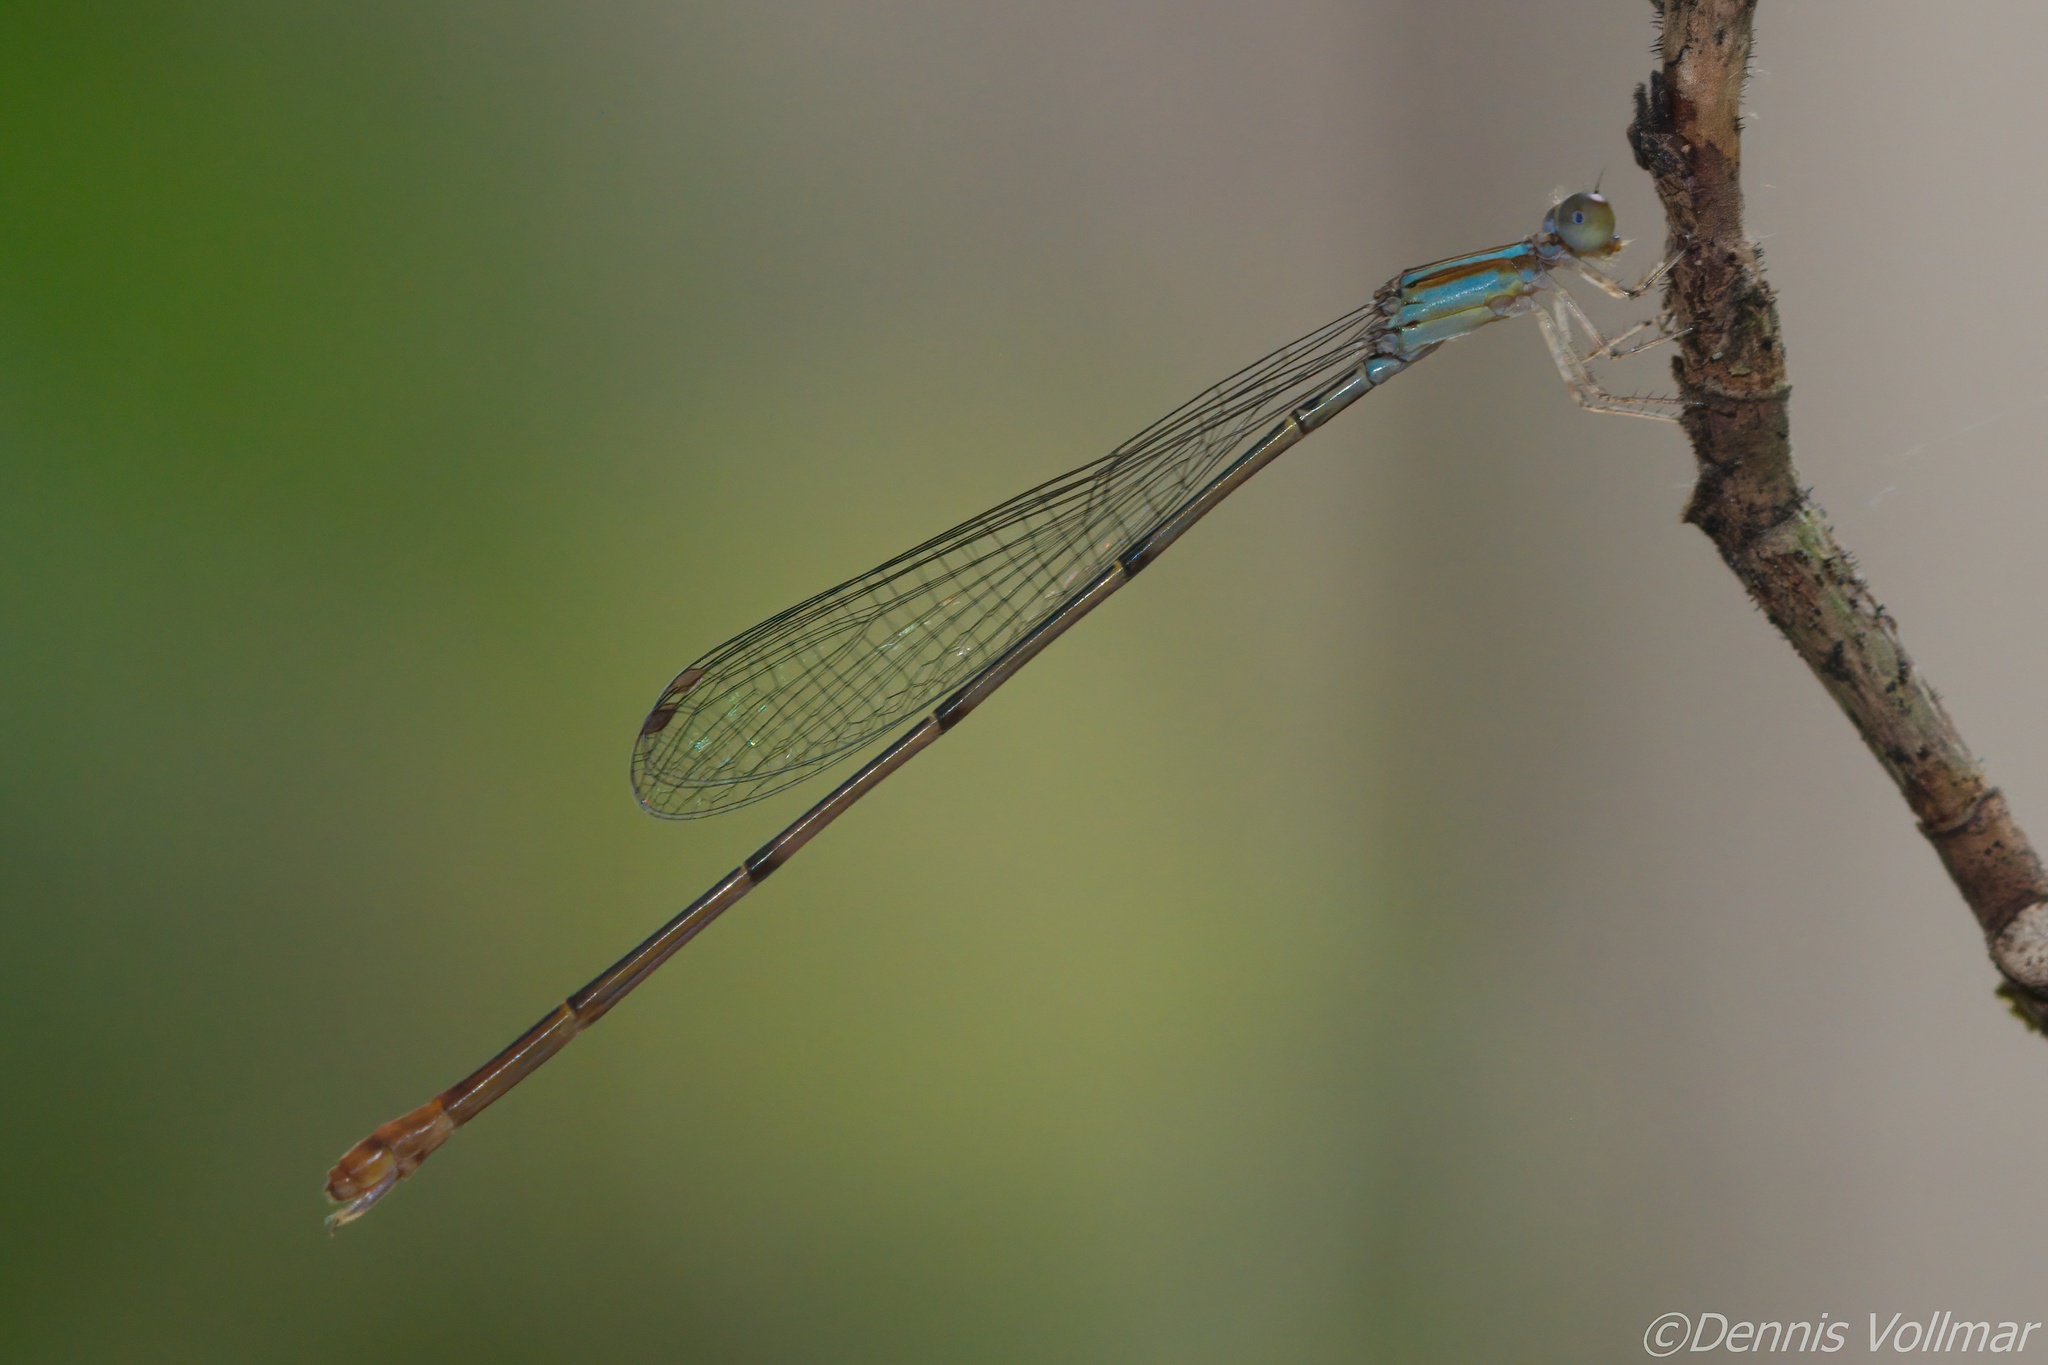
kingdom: Animalia
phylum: Arthropoda
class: Insecta
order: Odonata
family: Coenagrionidae
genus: Leptobasis
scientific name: Leptobasis lucifer
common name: Lucifer swampdamsel
